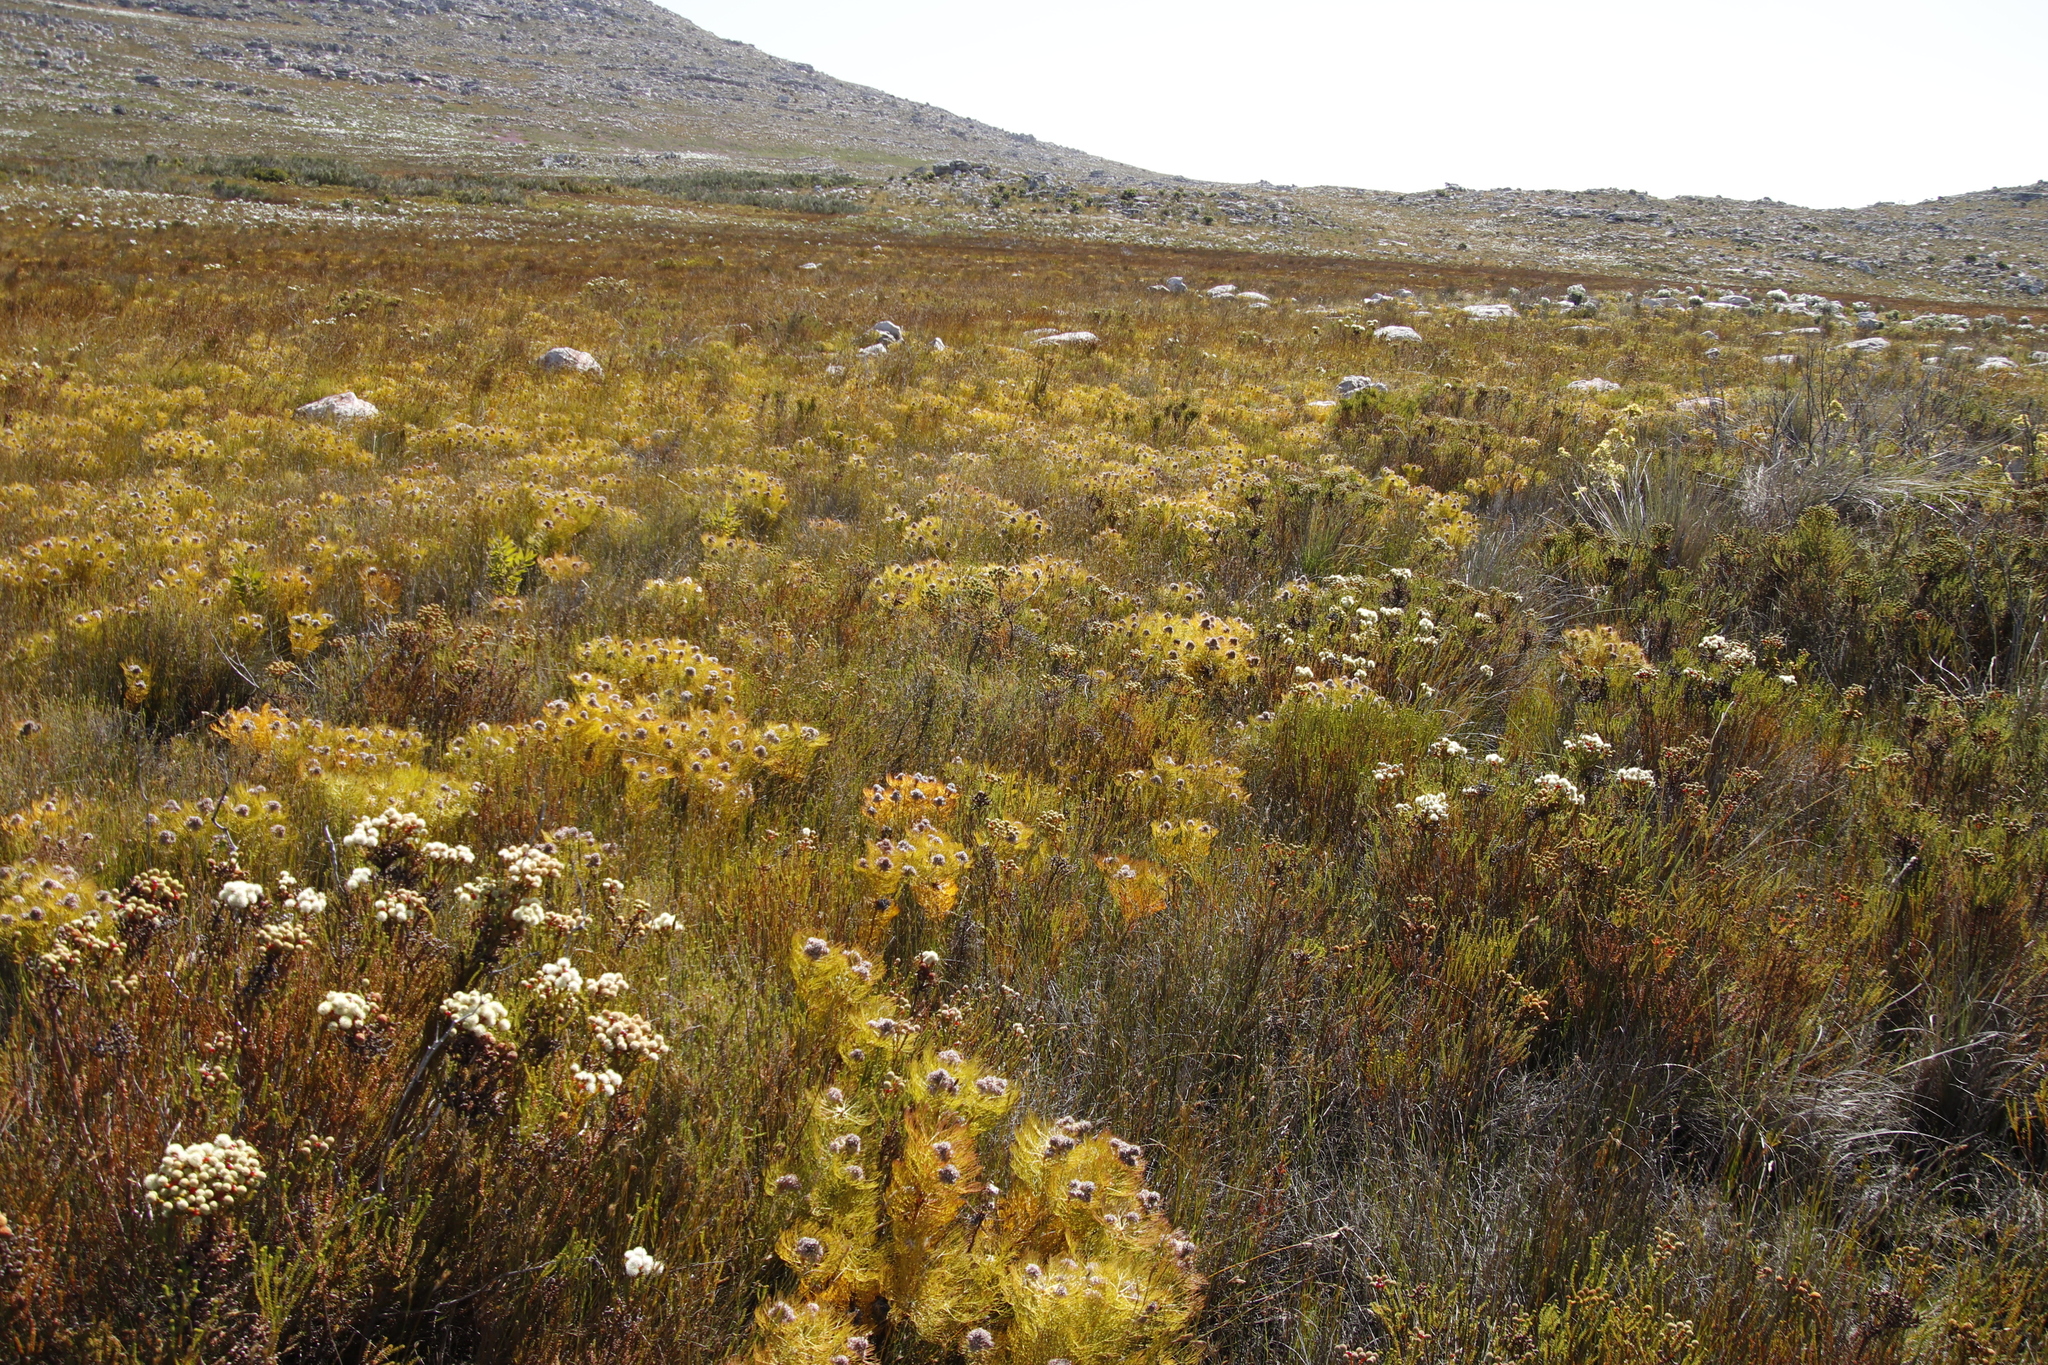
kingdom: Plantae
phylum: Tracheophyta
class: Magnoliopsida
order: Proteales
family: Proteaceae
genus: Serruria
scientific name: Serruria glomerata
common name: Cluster spiderhead
